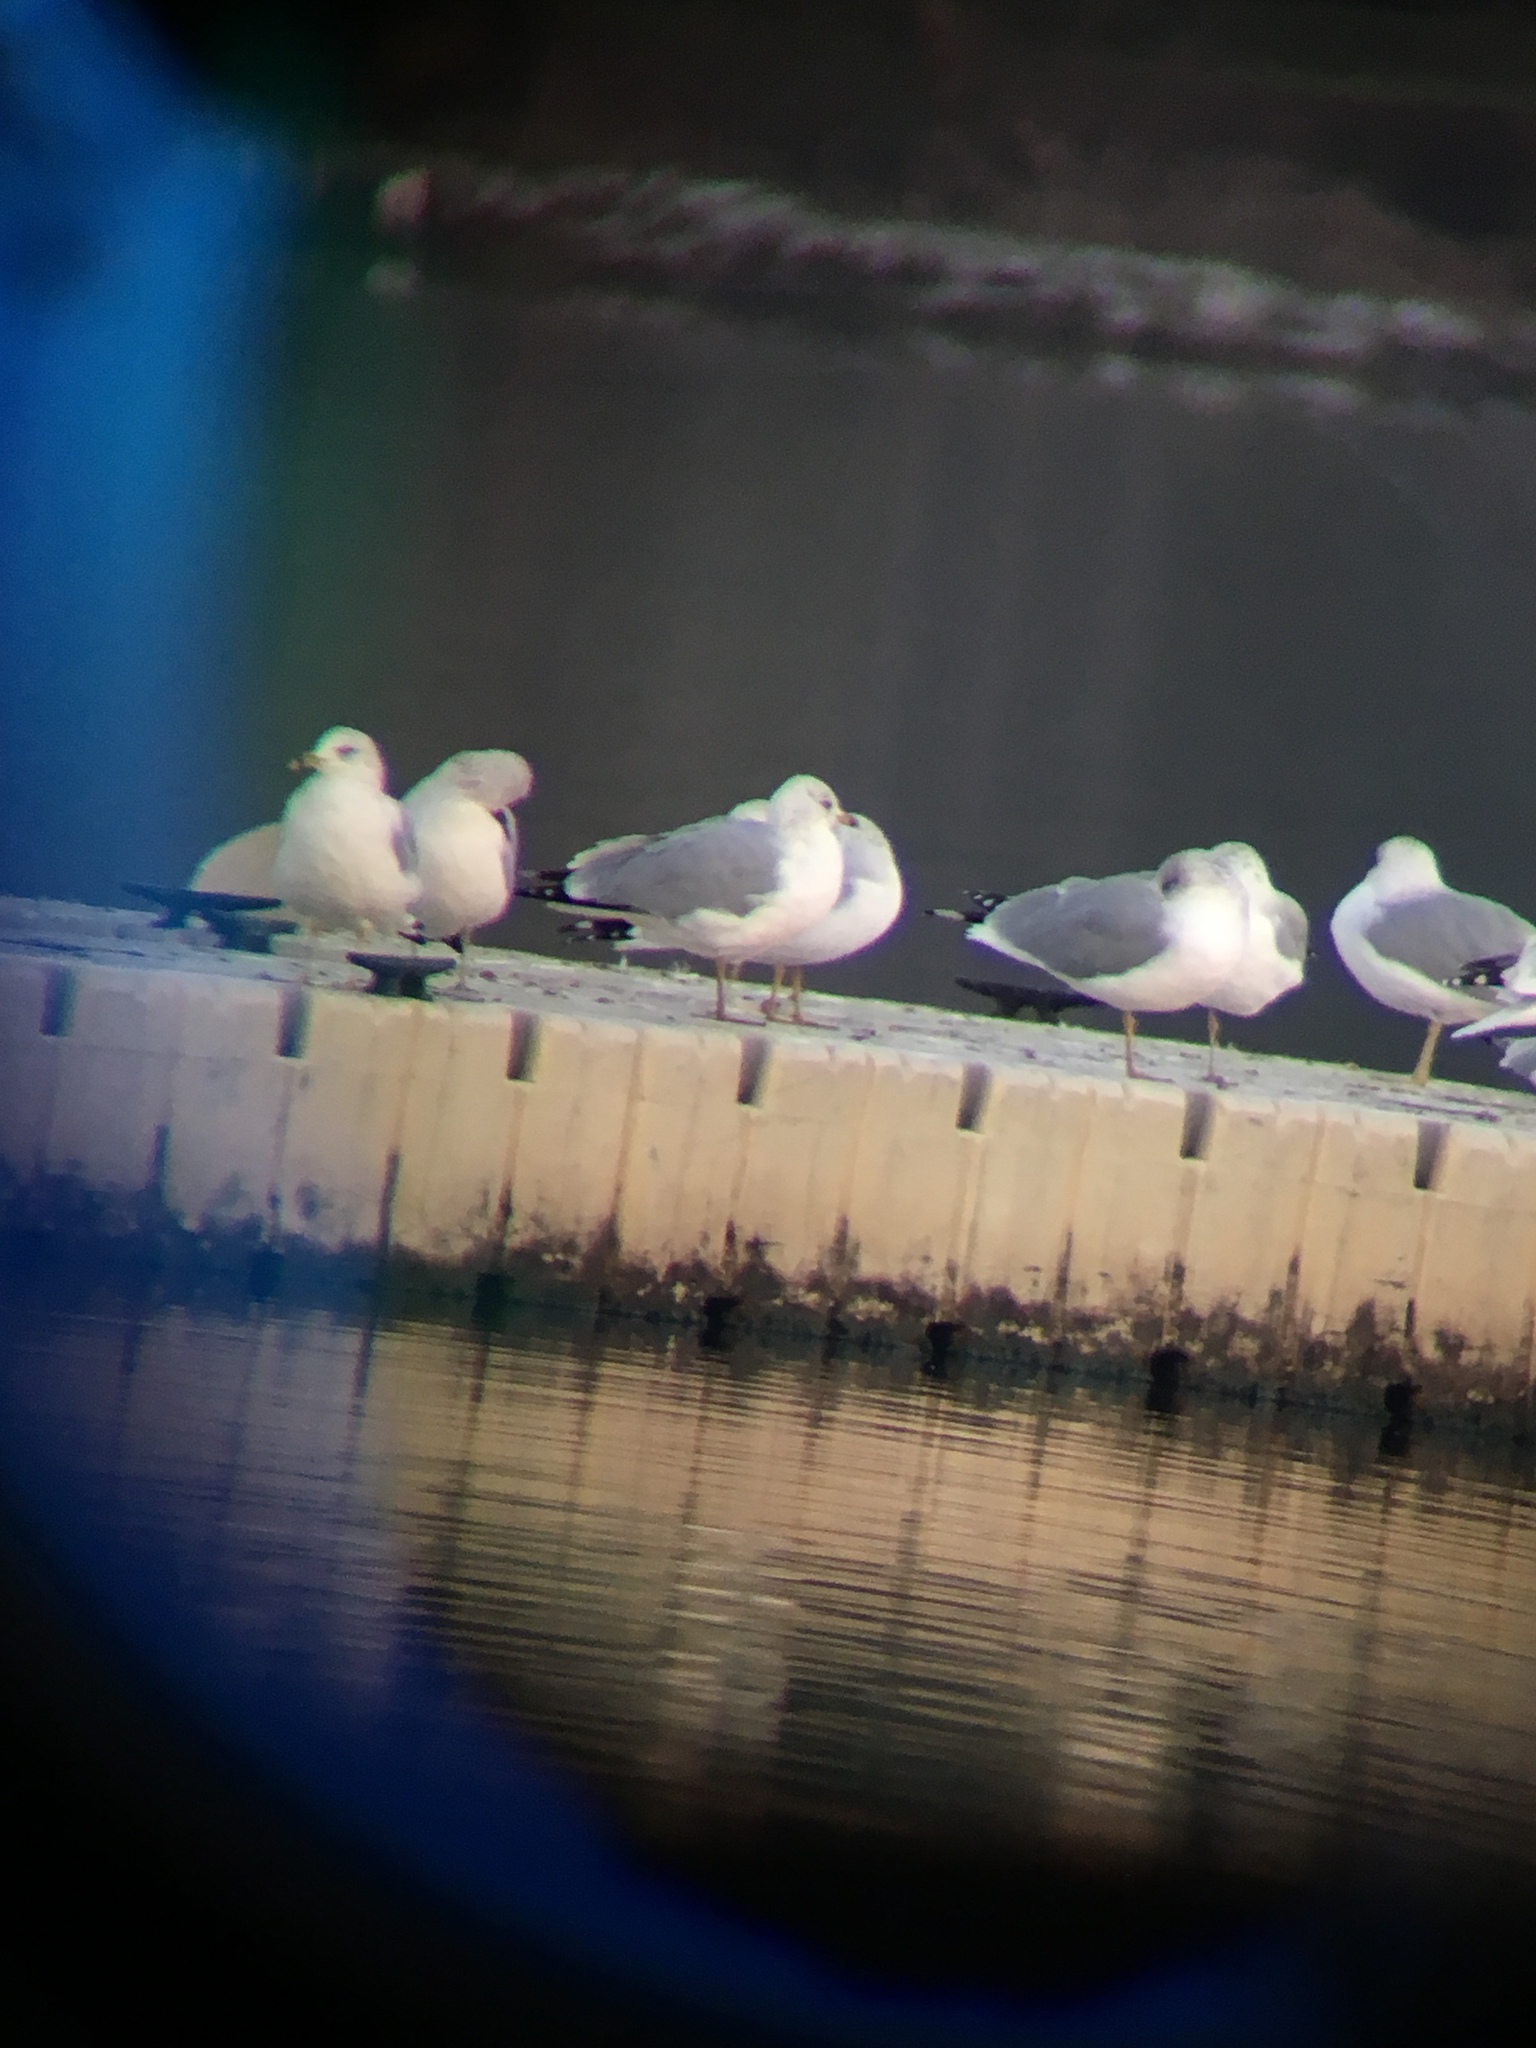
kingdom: Animalia
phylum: Chordata
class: Aves
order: Charadriiformes
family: Laridae
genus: Larus
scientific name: Larus delawarensis
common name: Ring-billed gull
